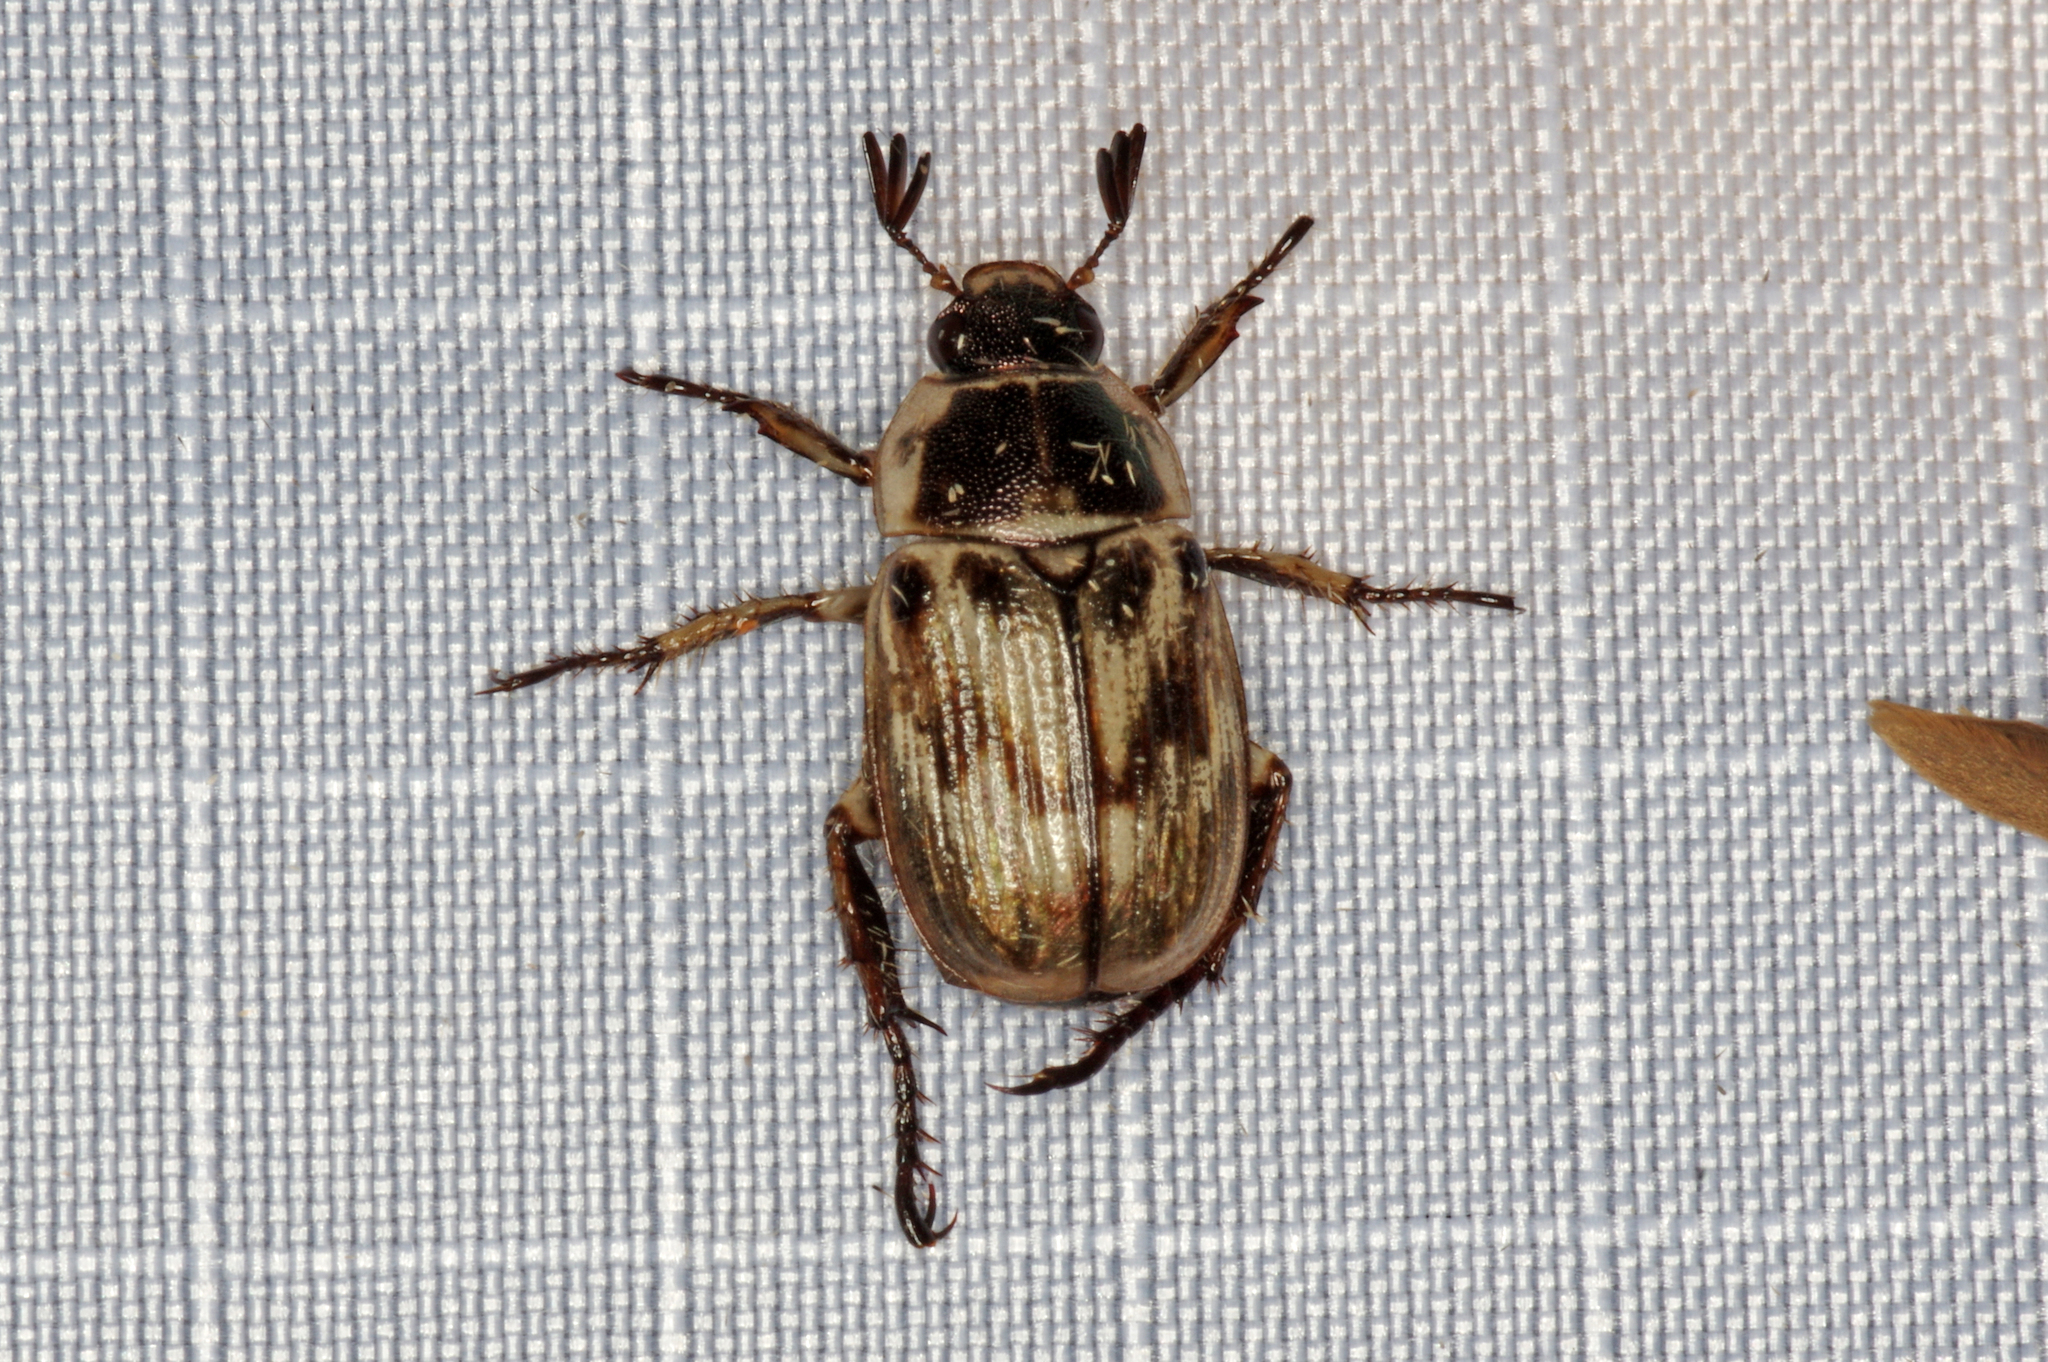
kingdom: Animalia
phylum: Arthropoda
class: Insecta
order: Coleoptera
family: Scarabaeidae
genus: Exomala
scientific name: Exomala orientalis
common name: Oriental beetle
